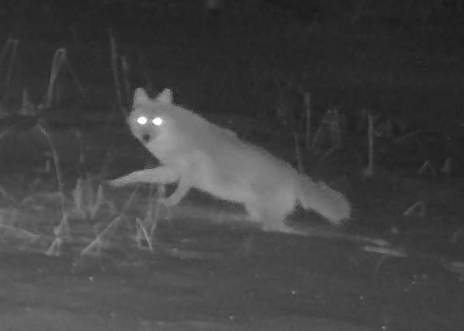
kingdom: Animalia
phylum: Chordata
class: Mammalia
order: Carnivora
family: Canidae
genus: Canis
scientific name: Canis latrans
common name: Coyote
